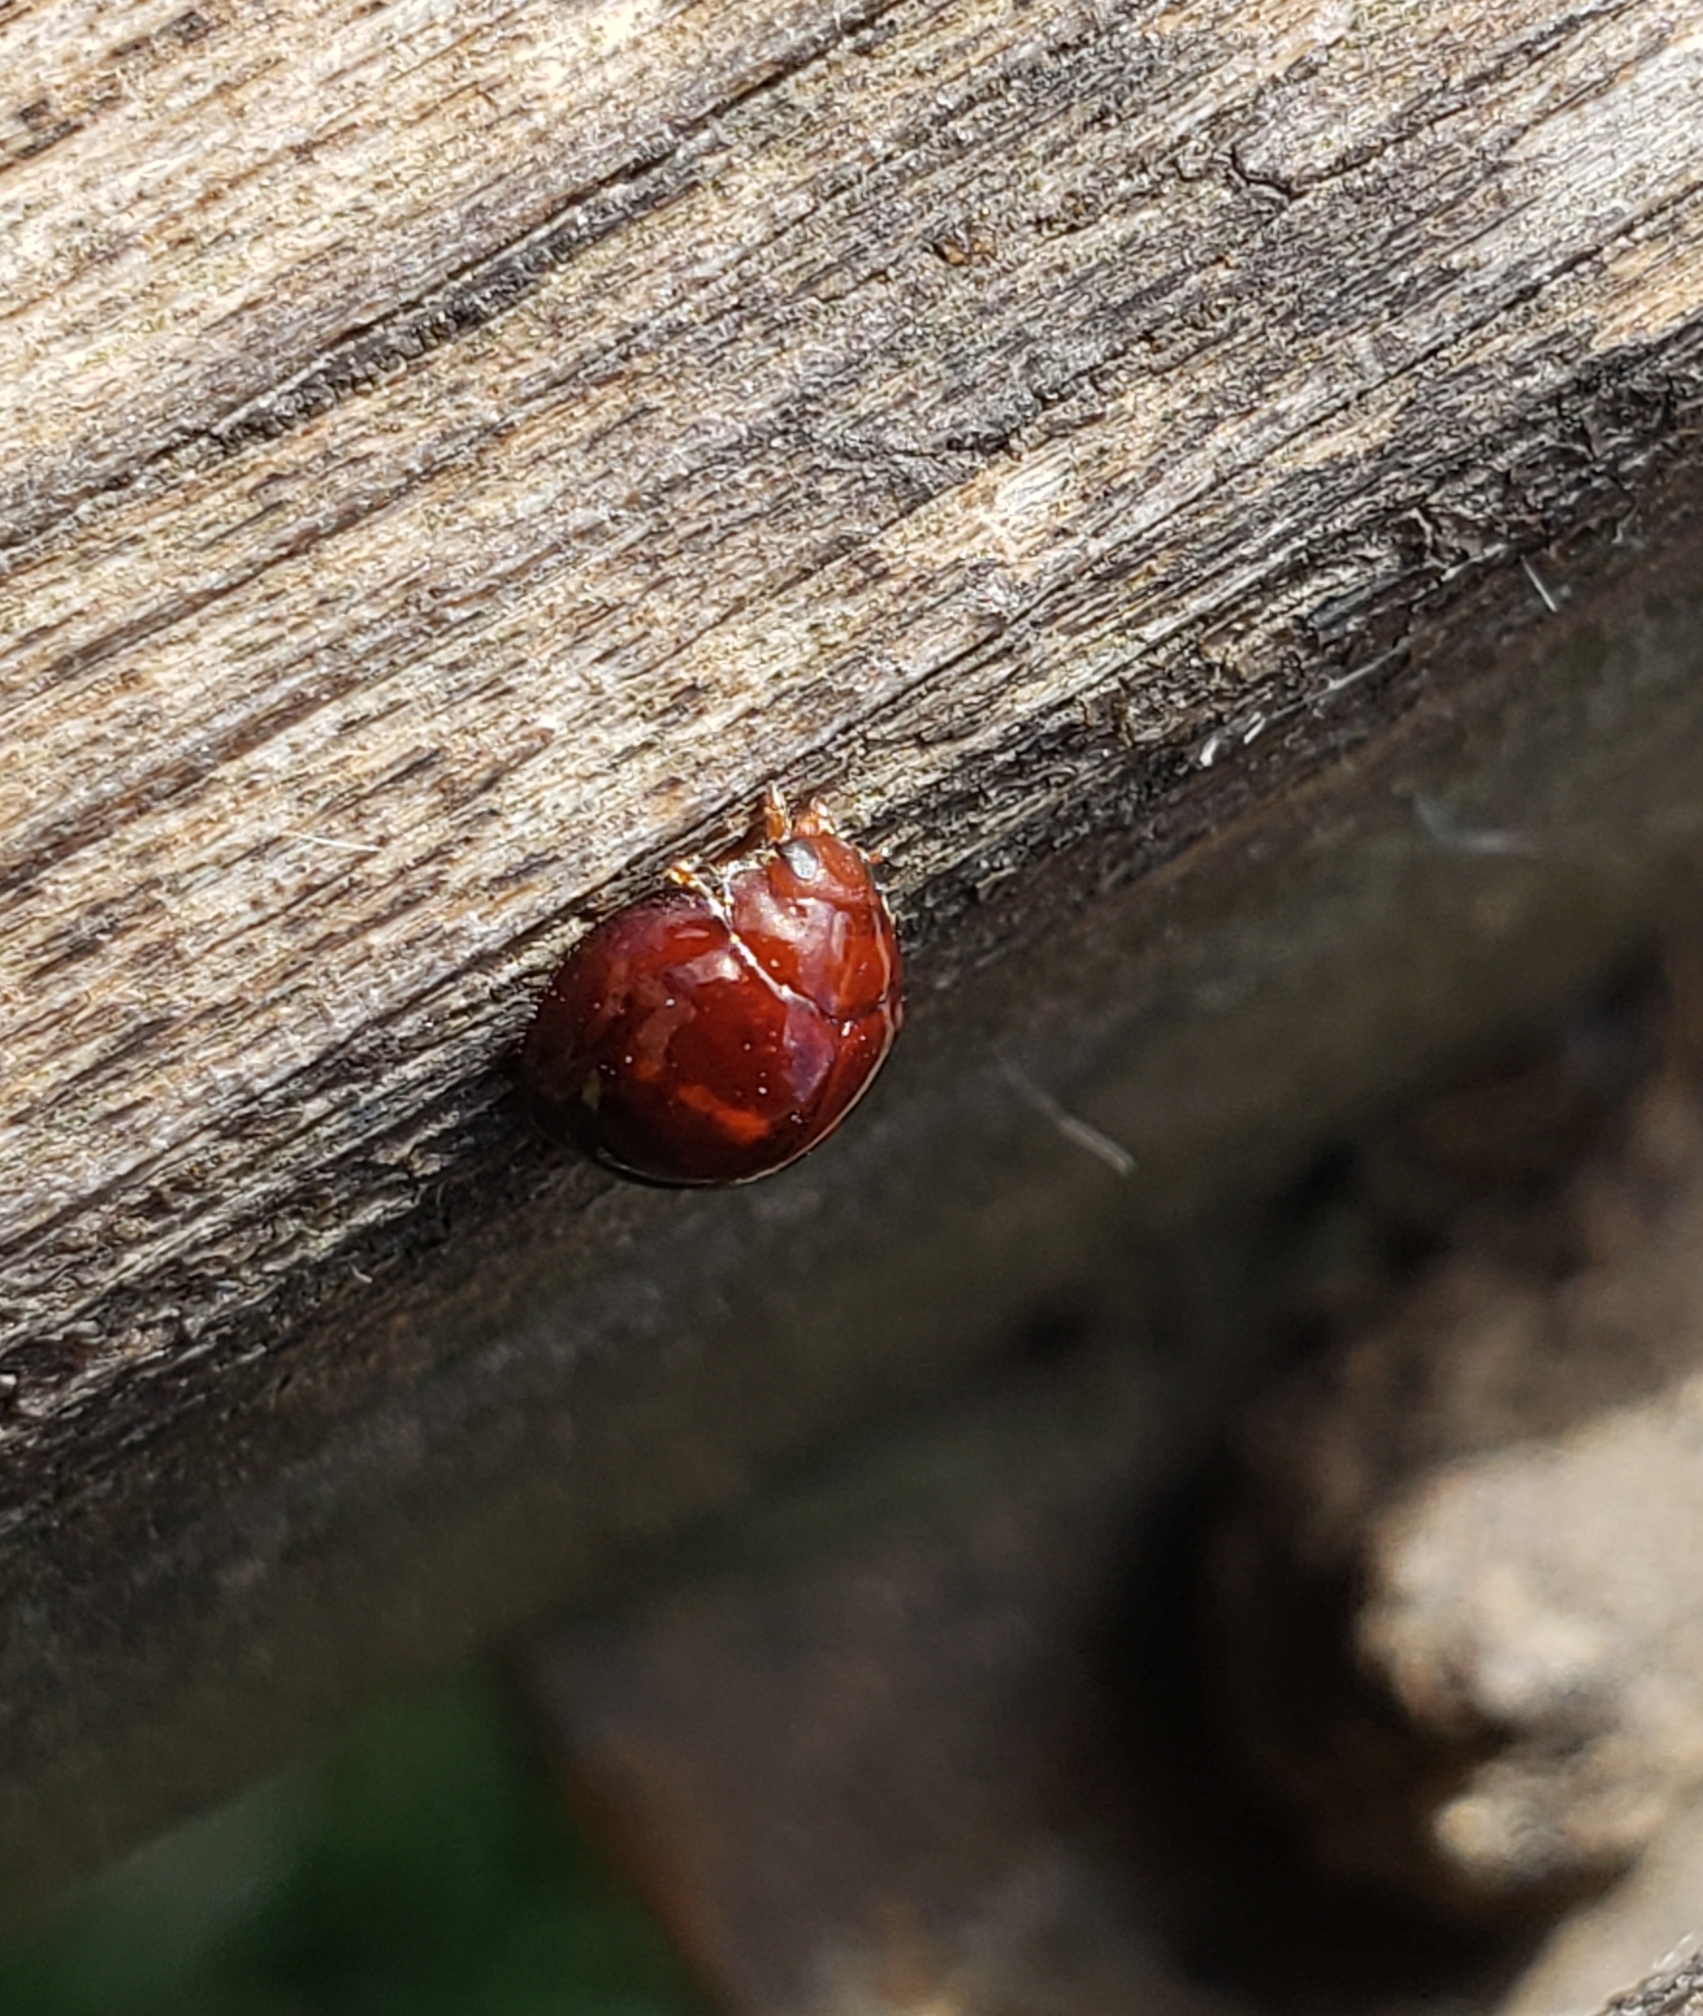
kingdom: Animalia
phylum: Arthropoda
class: Insecta
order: Coleoptera
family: Coccinellidae
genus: Chilocorus
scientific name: Chilocorus bipustulatus
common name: Heather ladybird
